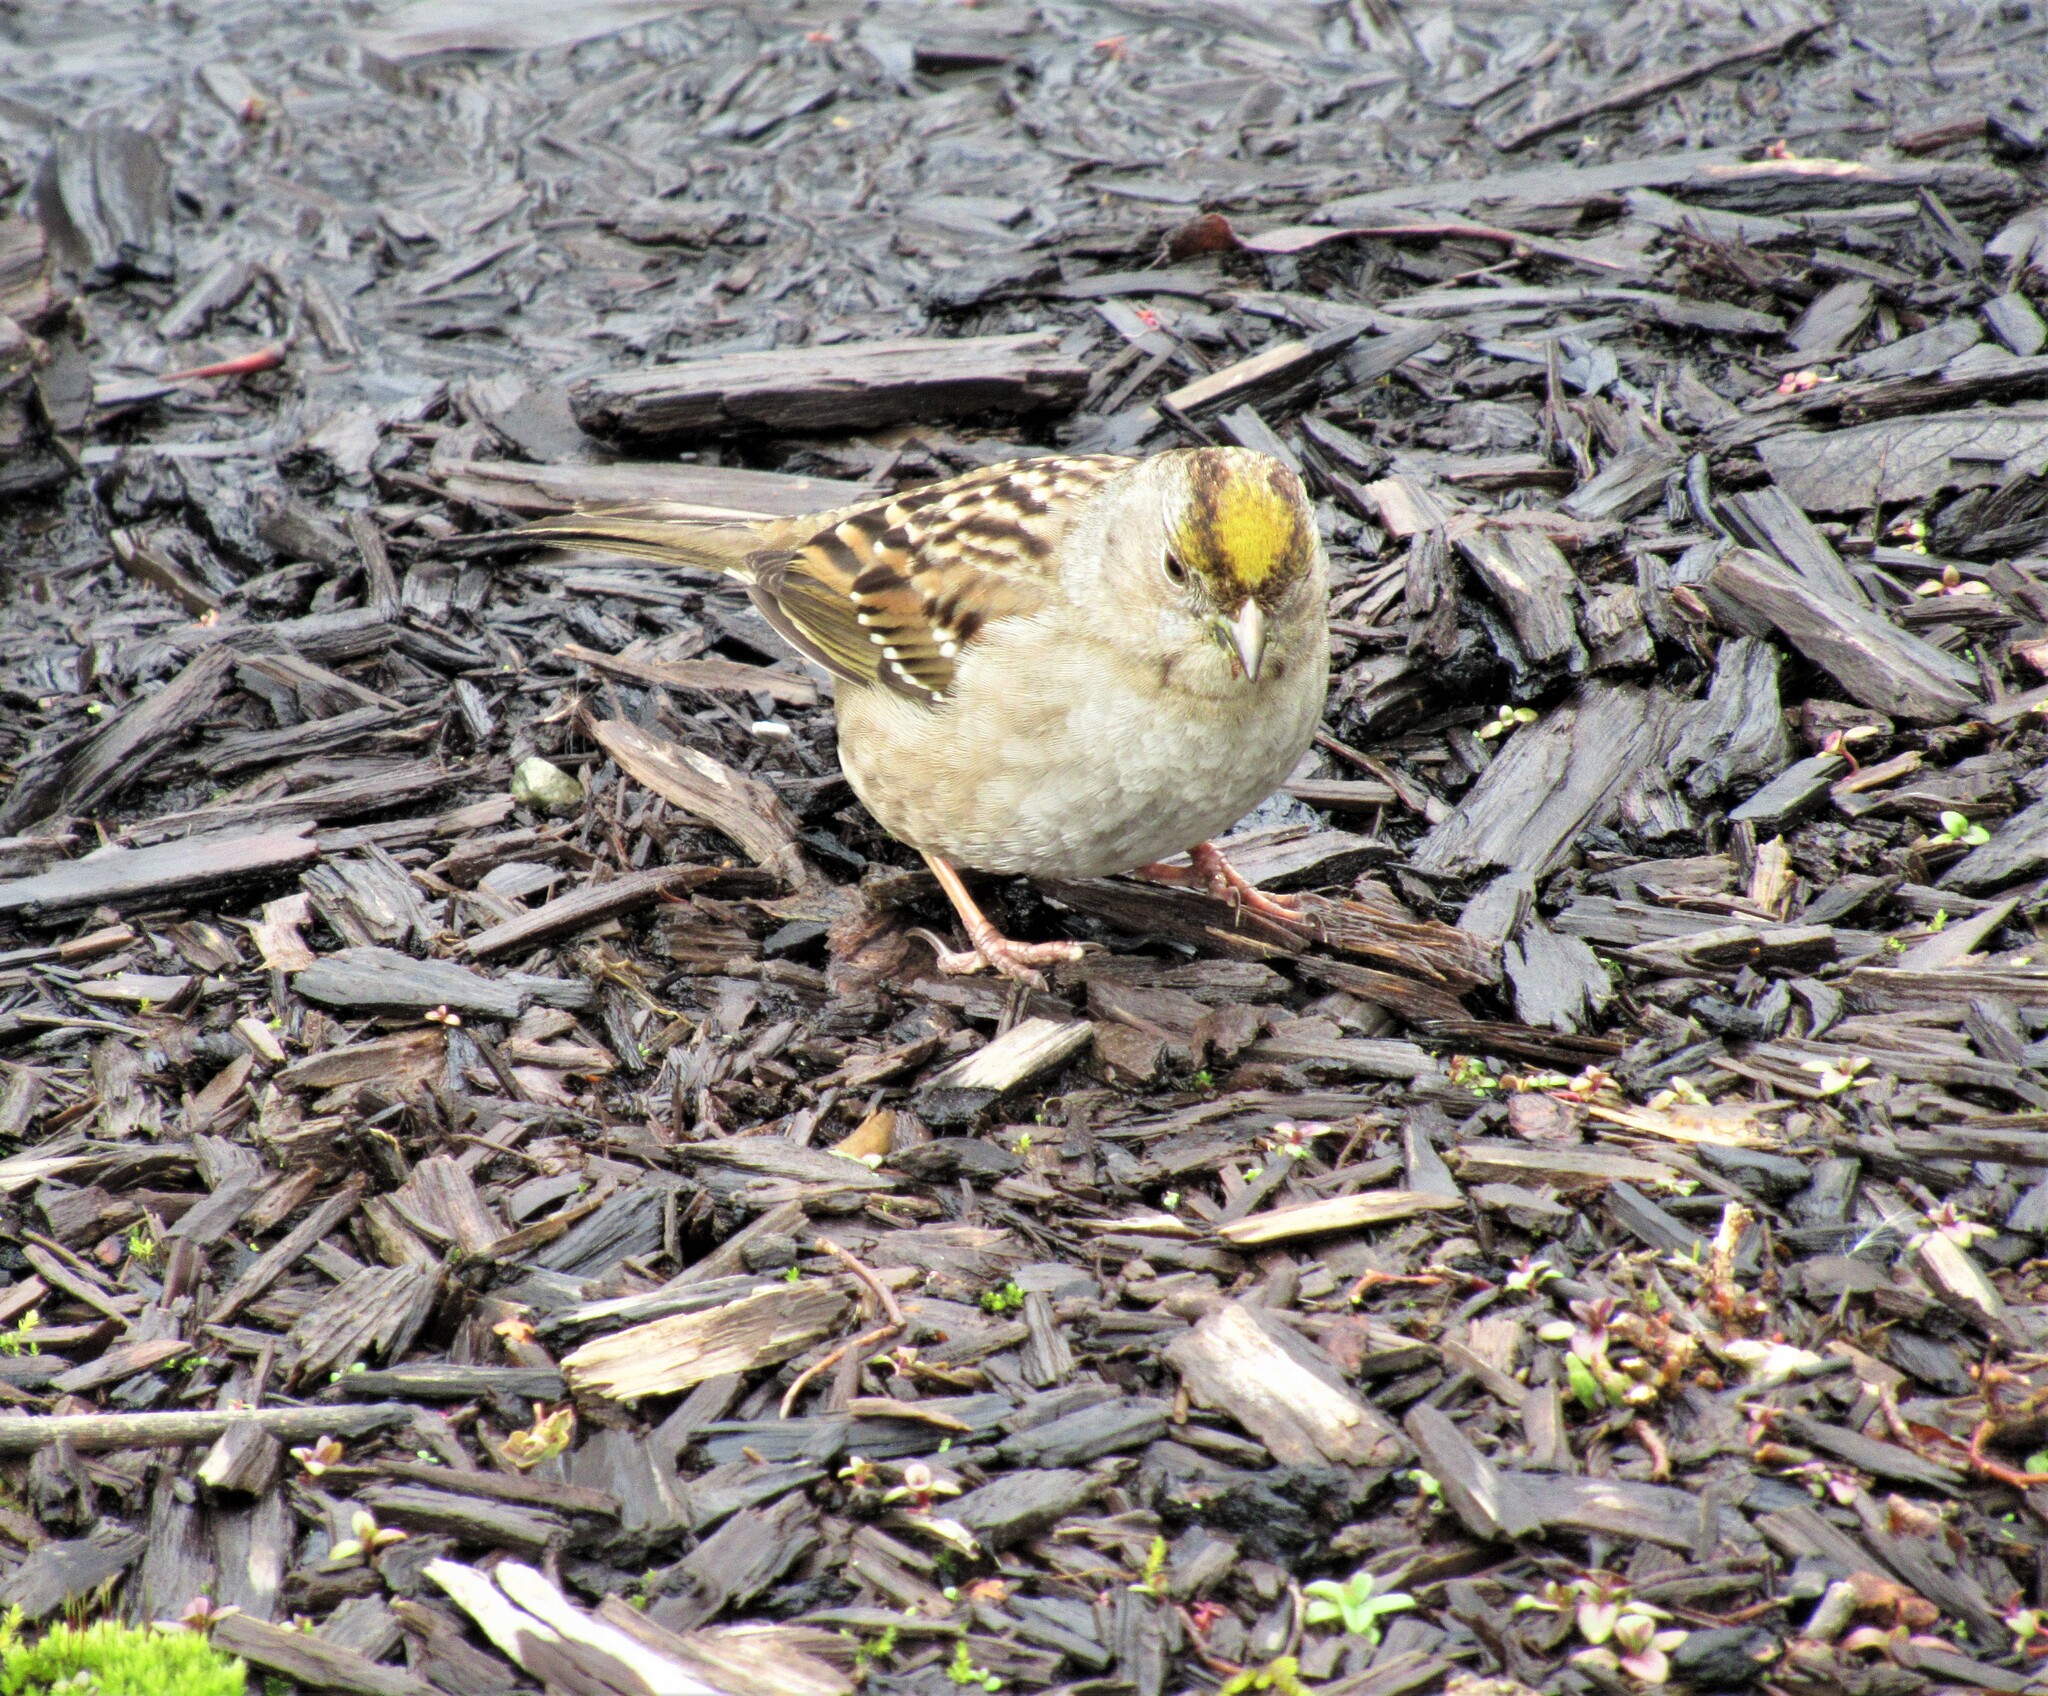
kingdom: Animalia
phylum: Chordata
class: Aves
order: Passeriformes
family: Passerellidae
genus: Zonotrichia
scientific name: Zonotrichia atricapilla
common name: Golden-crowned sparrow
